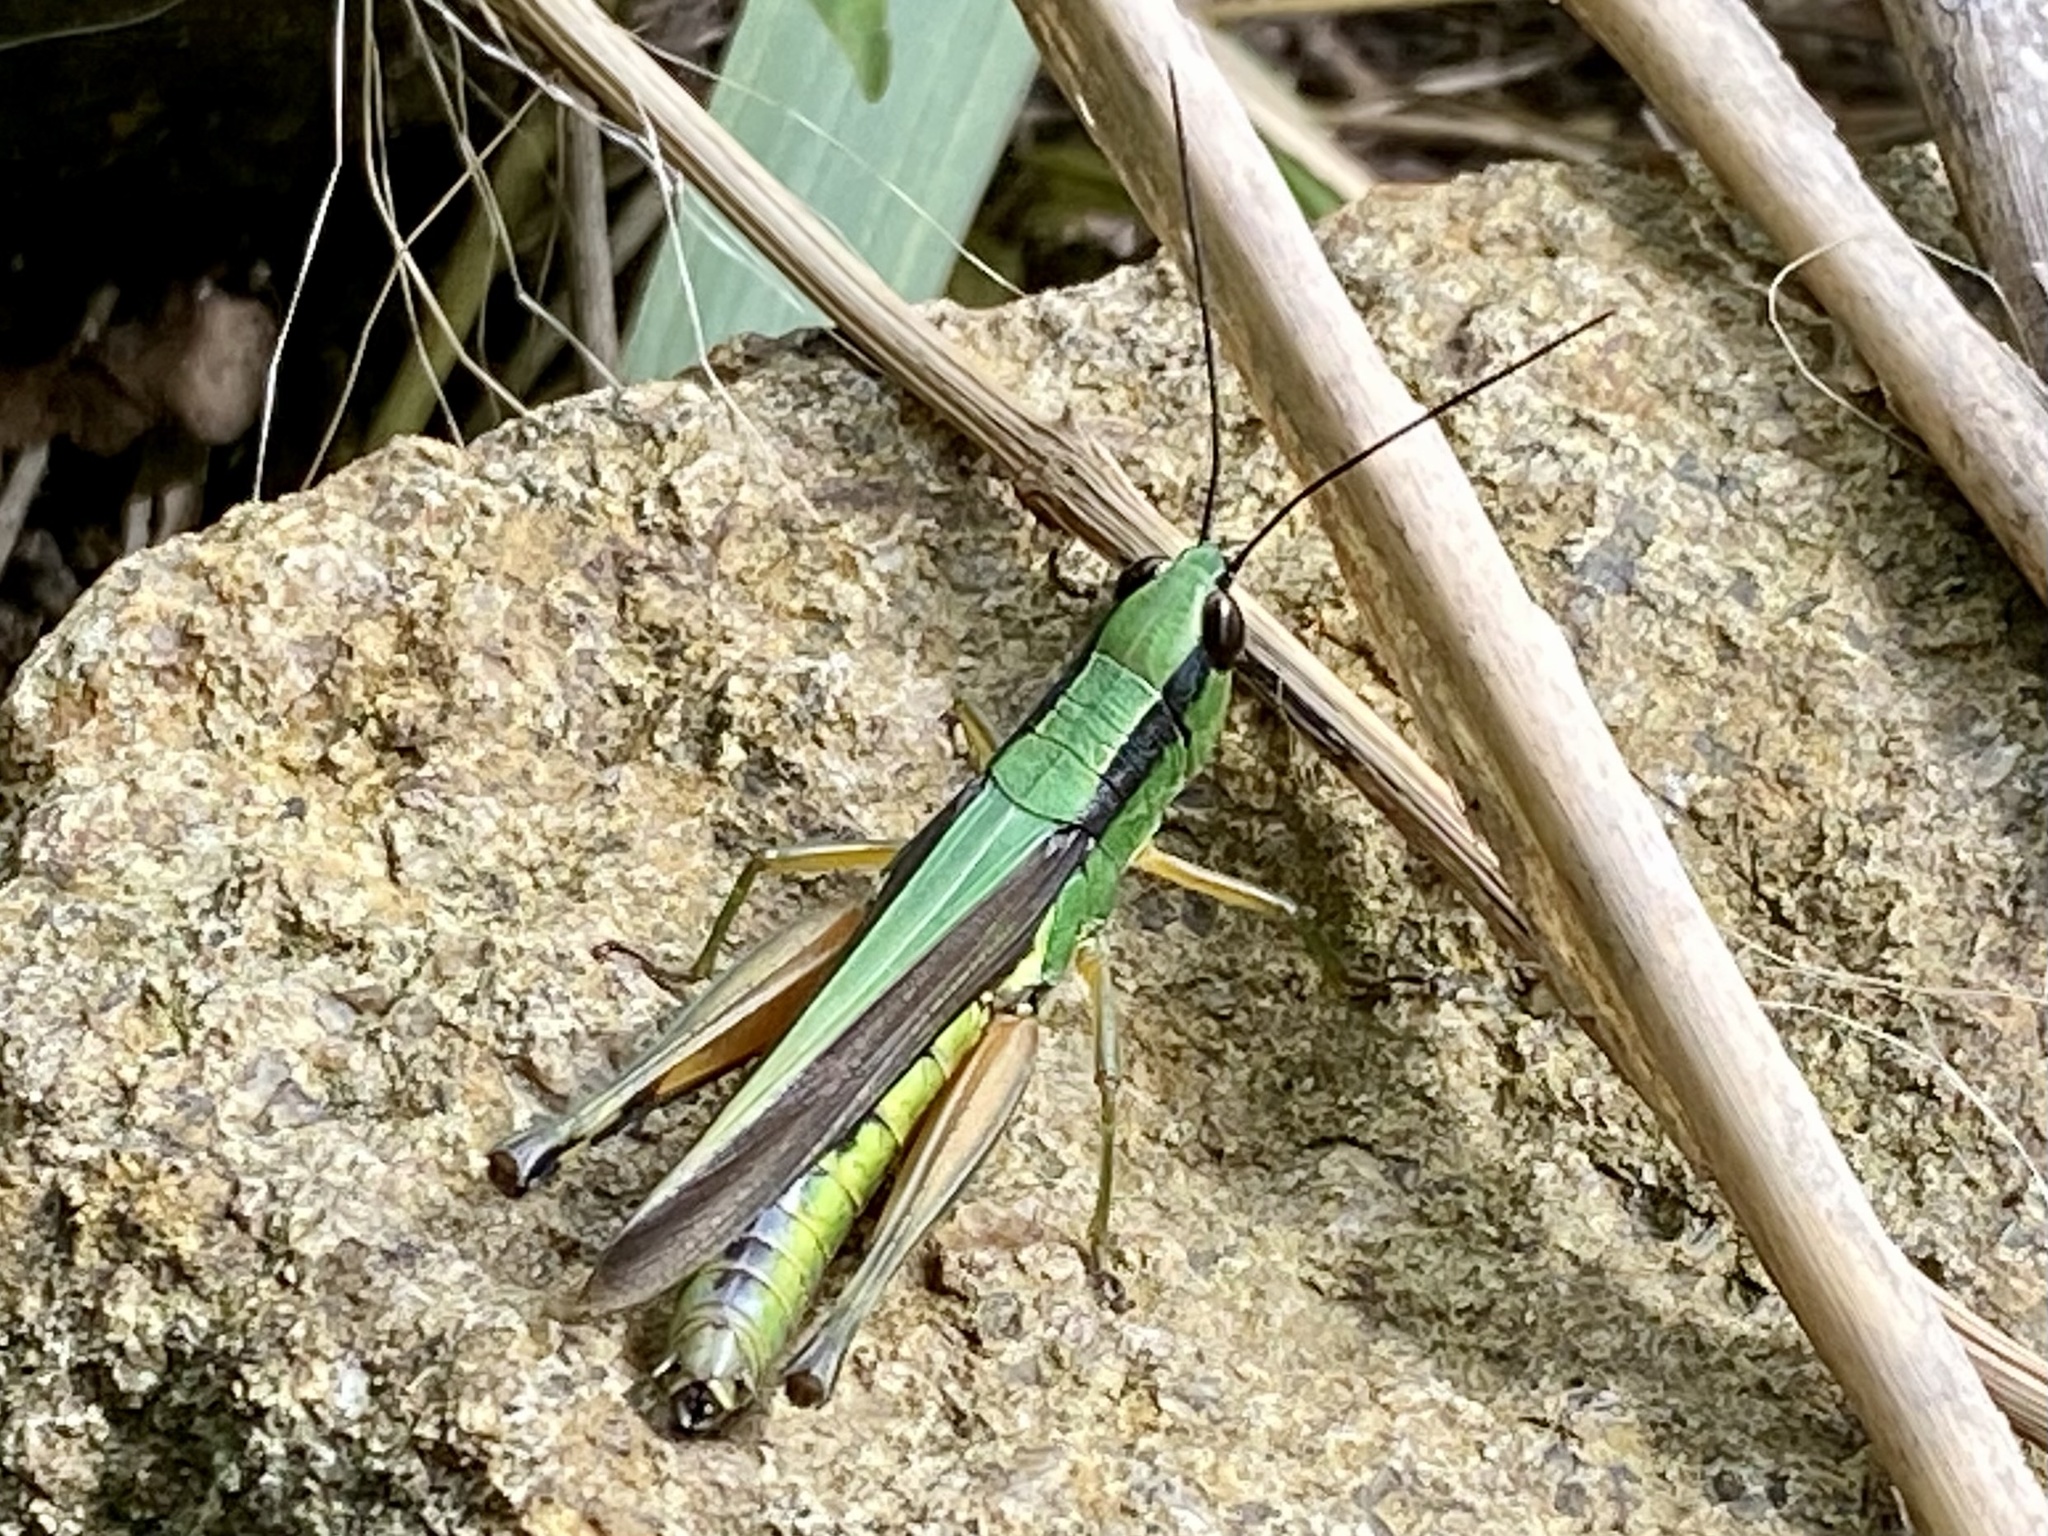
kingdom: Animalia
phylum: Arthropoda
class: Insecta
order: Orthoptera
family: Acrididae
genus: Ceracris
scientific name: Ceracris nigricornis
